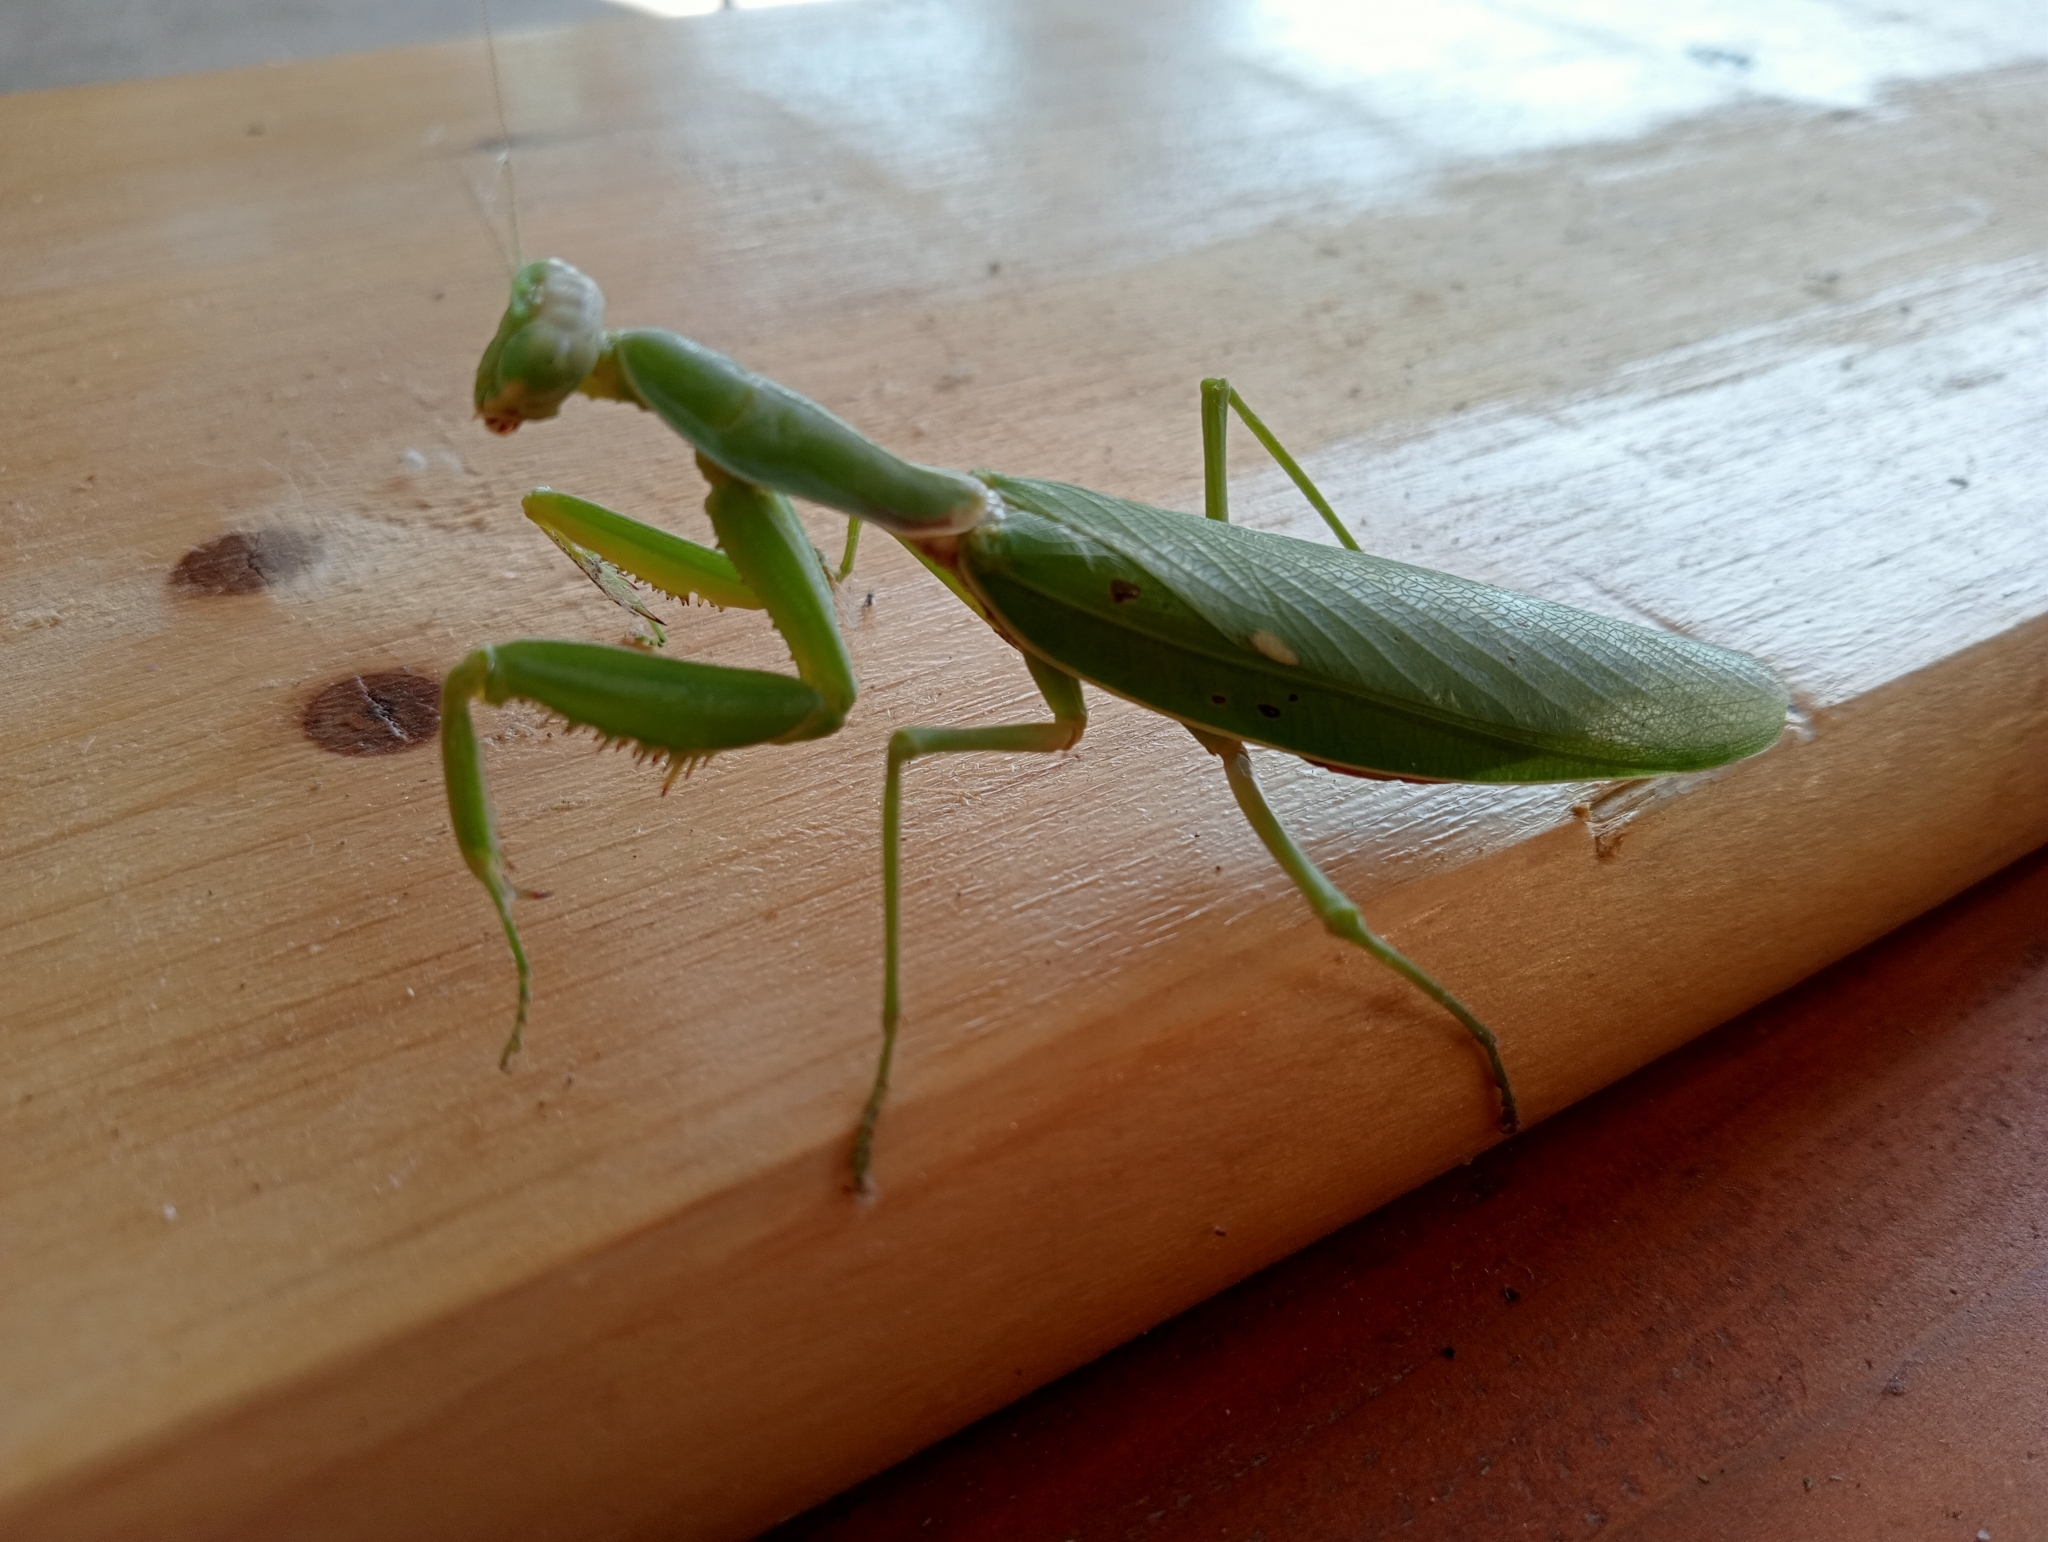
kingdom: Animalia
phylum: Arthropoda
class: Insecta
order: Mantodea
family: Mantidae
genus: Hierodula
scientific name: Hierodula transcaucasica
